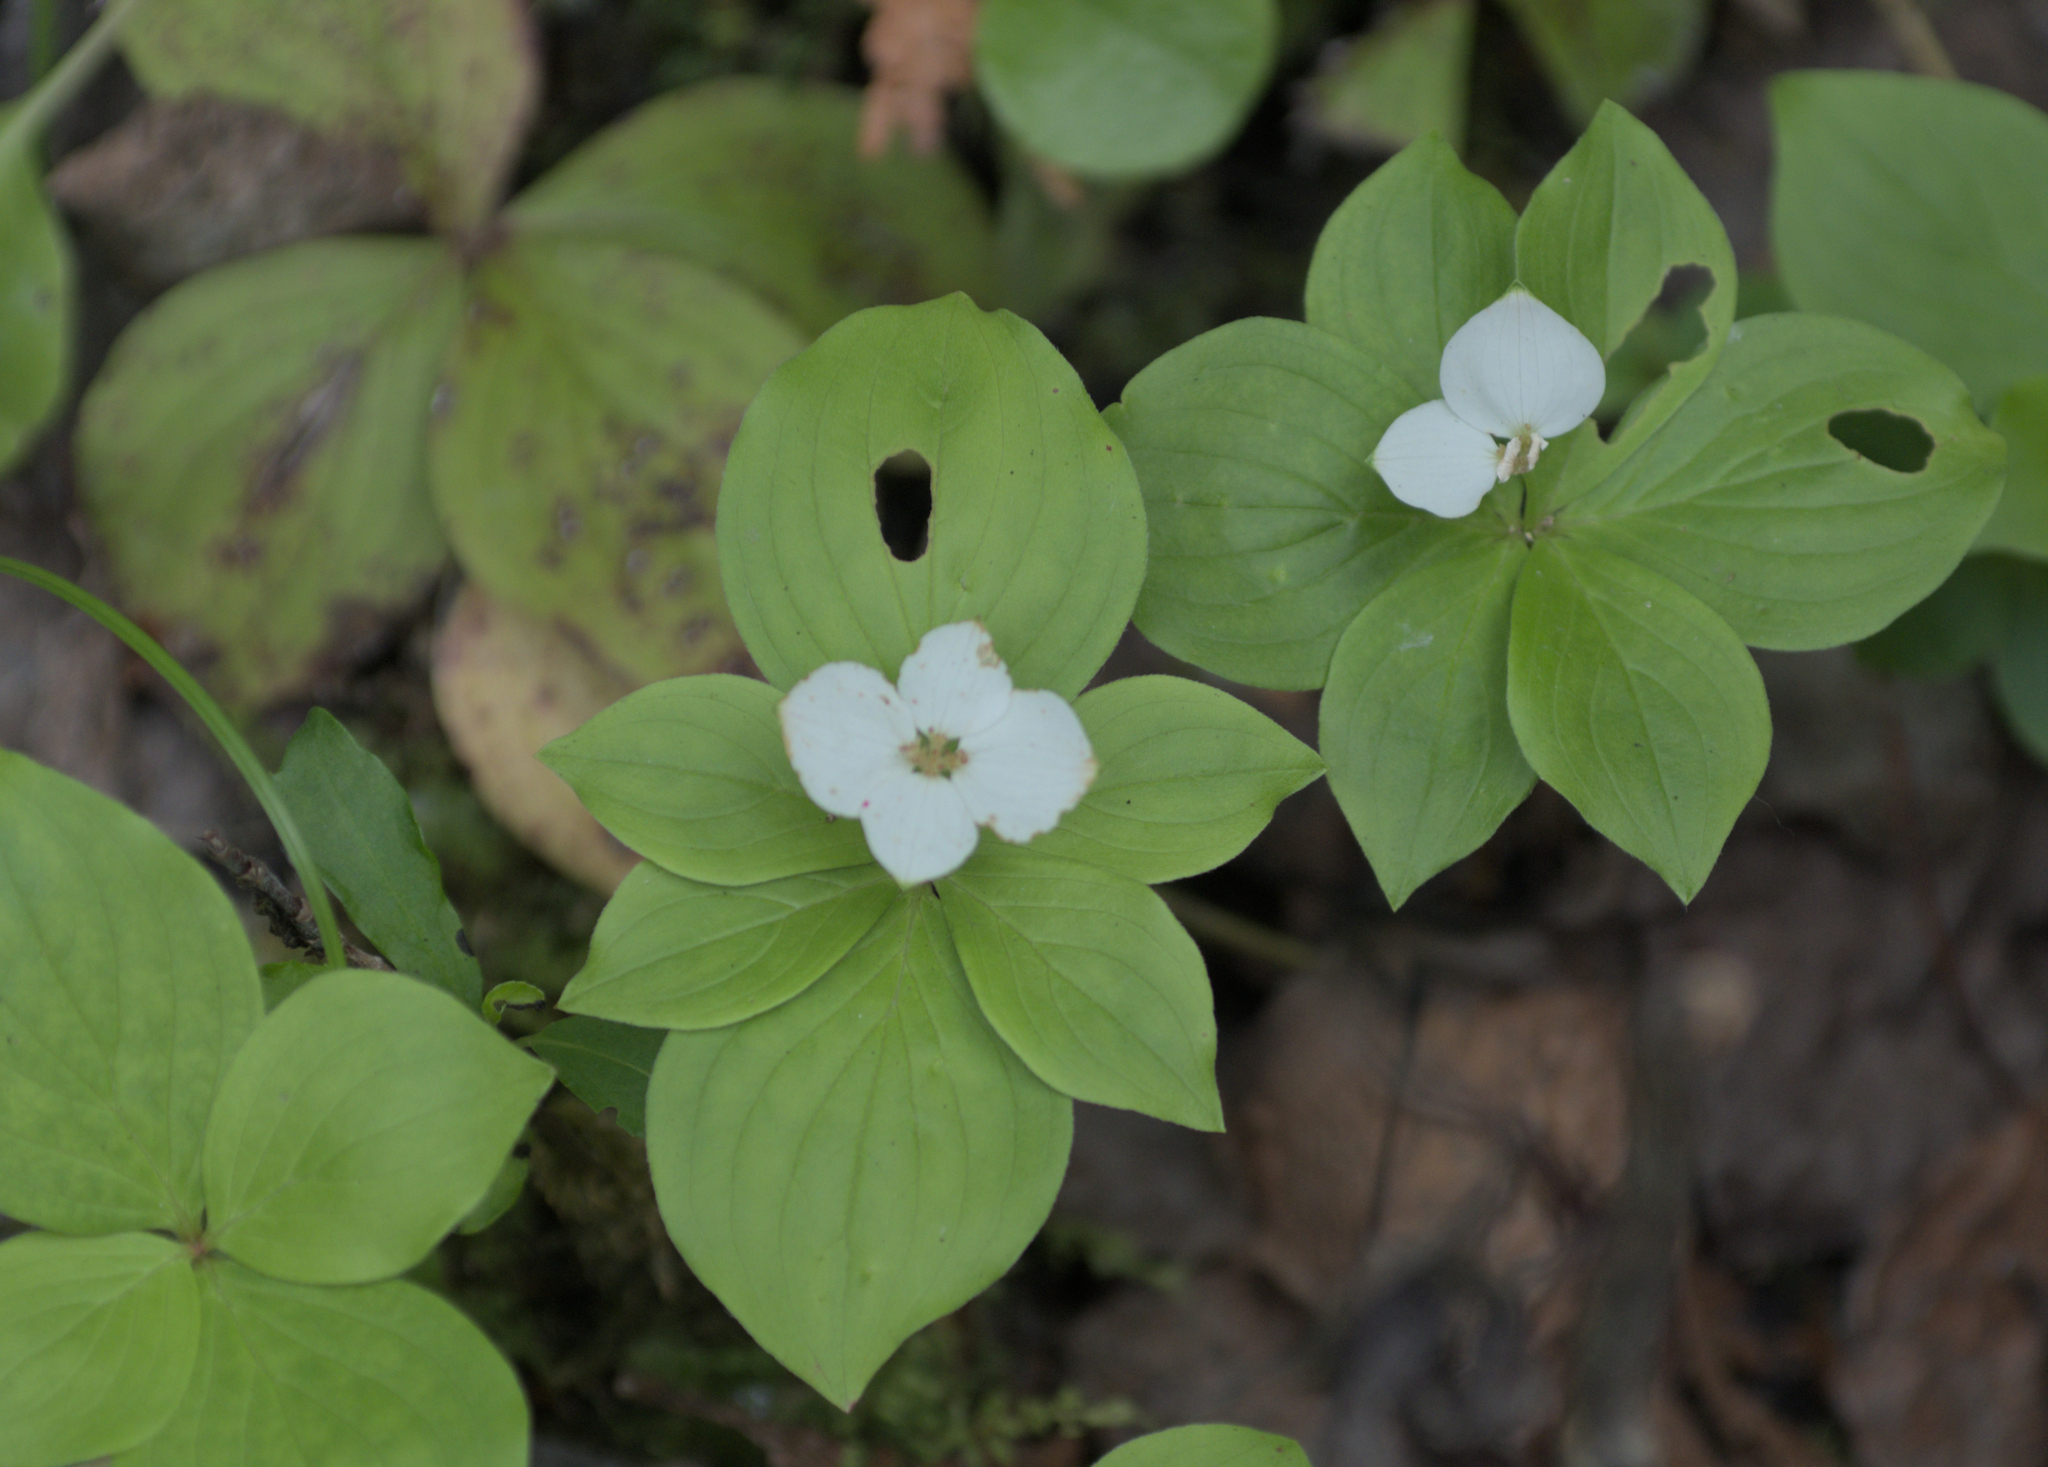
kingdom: Plantae
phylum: Tracheophyta
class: Magnoliopsida
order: Cornales
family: Cornaceae
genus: Cornus
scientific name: Cornus canadensis
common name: Creeping dogwood
